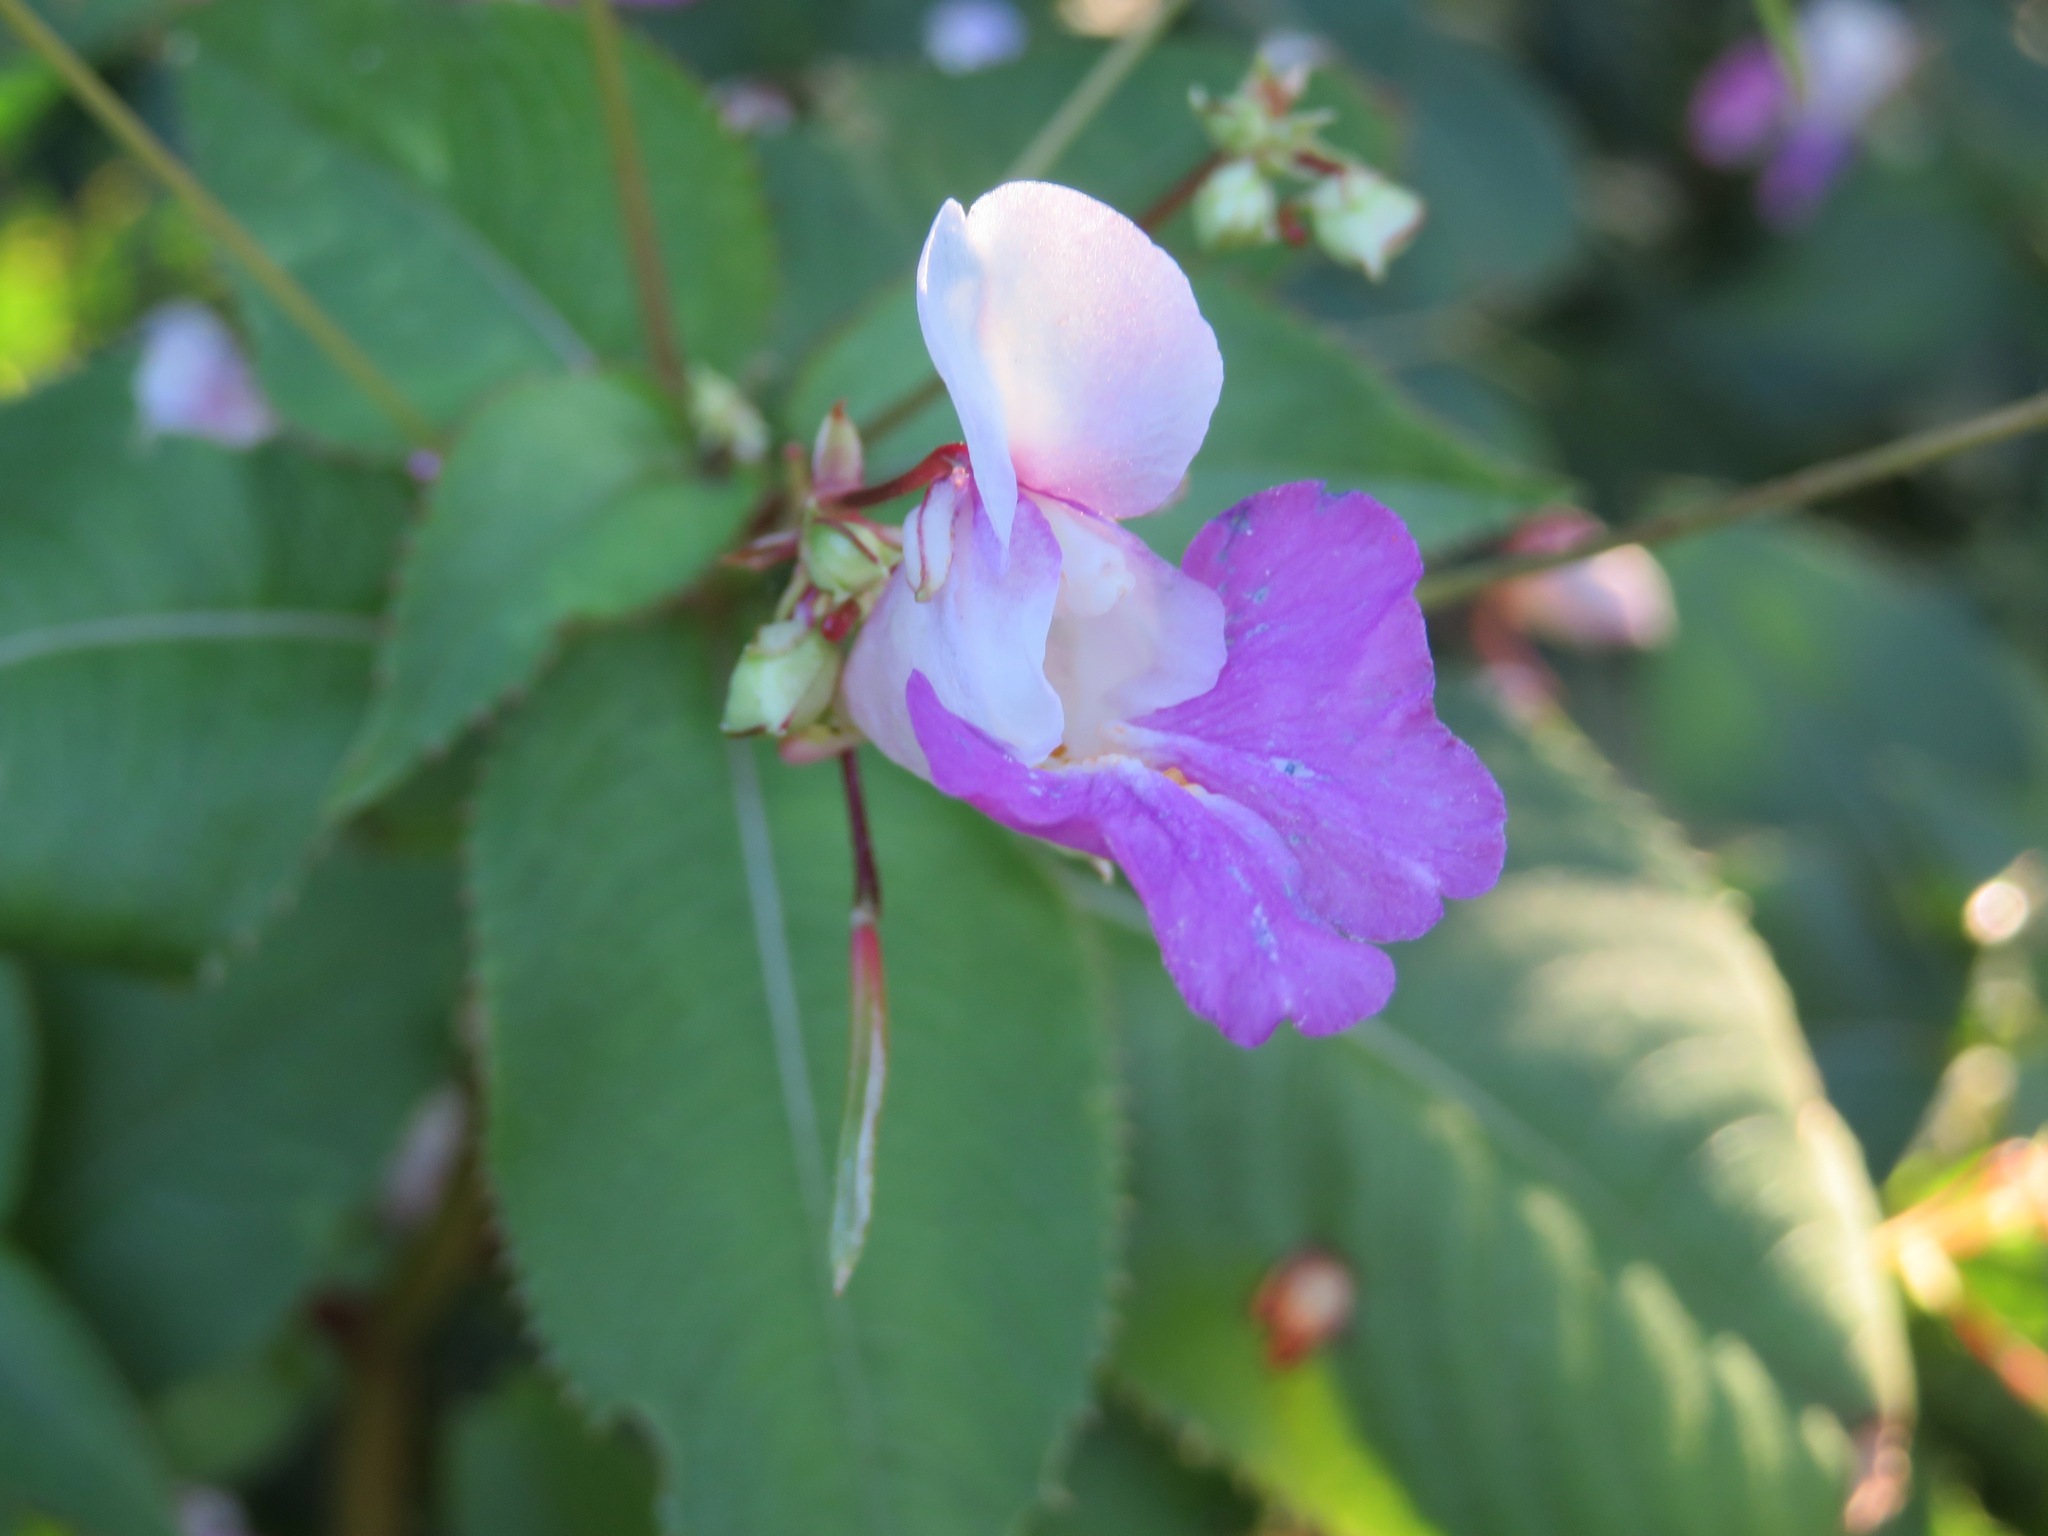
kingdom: Plantae
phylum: Tracheophyta
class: Magnoliopsida
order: Ericales
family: Balsaminaceae
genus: Impatiens
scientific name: Impatiens balfourii
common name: Balfour's touch-me-not
